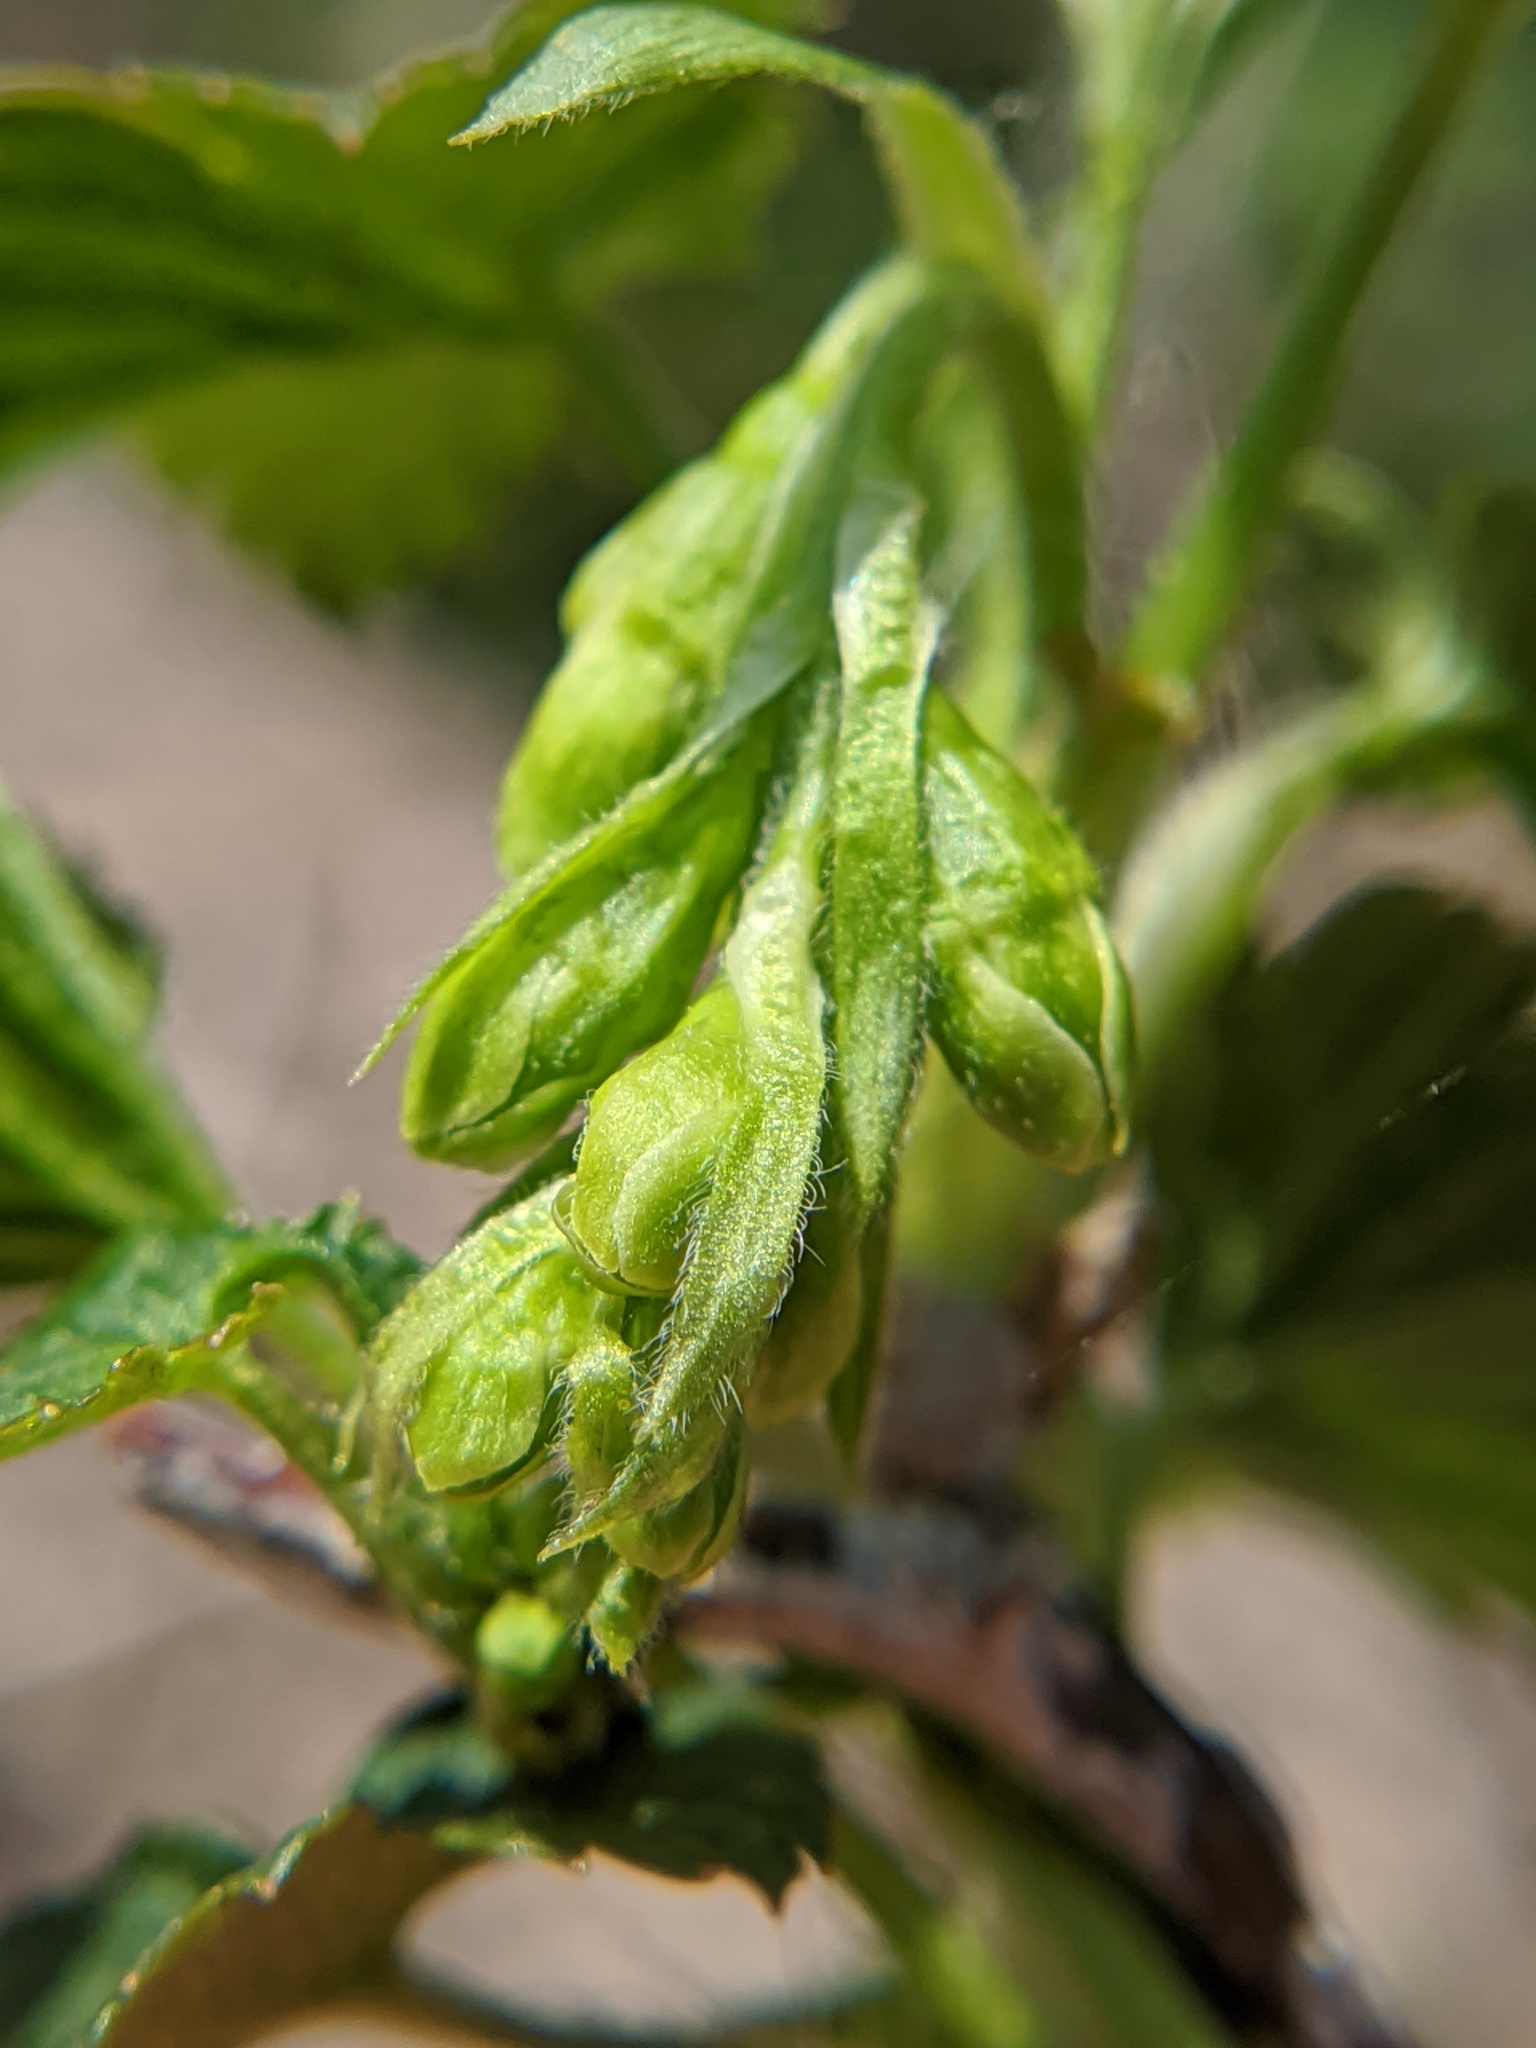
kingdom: Plantae
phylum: Tracheophyta
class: Magnoliopsida
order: Saxifragales
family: Grossulariaceae
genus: Ribes
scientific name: Ribes americanum
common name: American black currant
